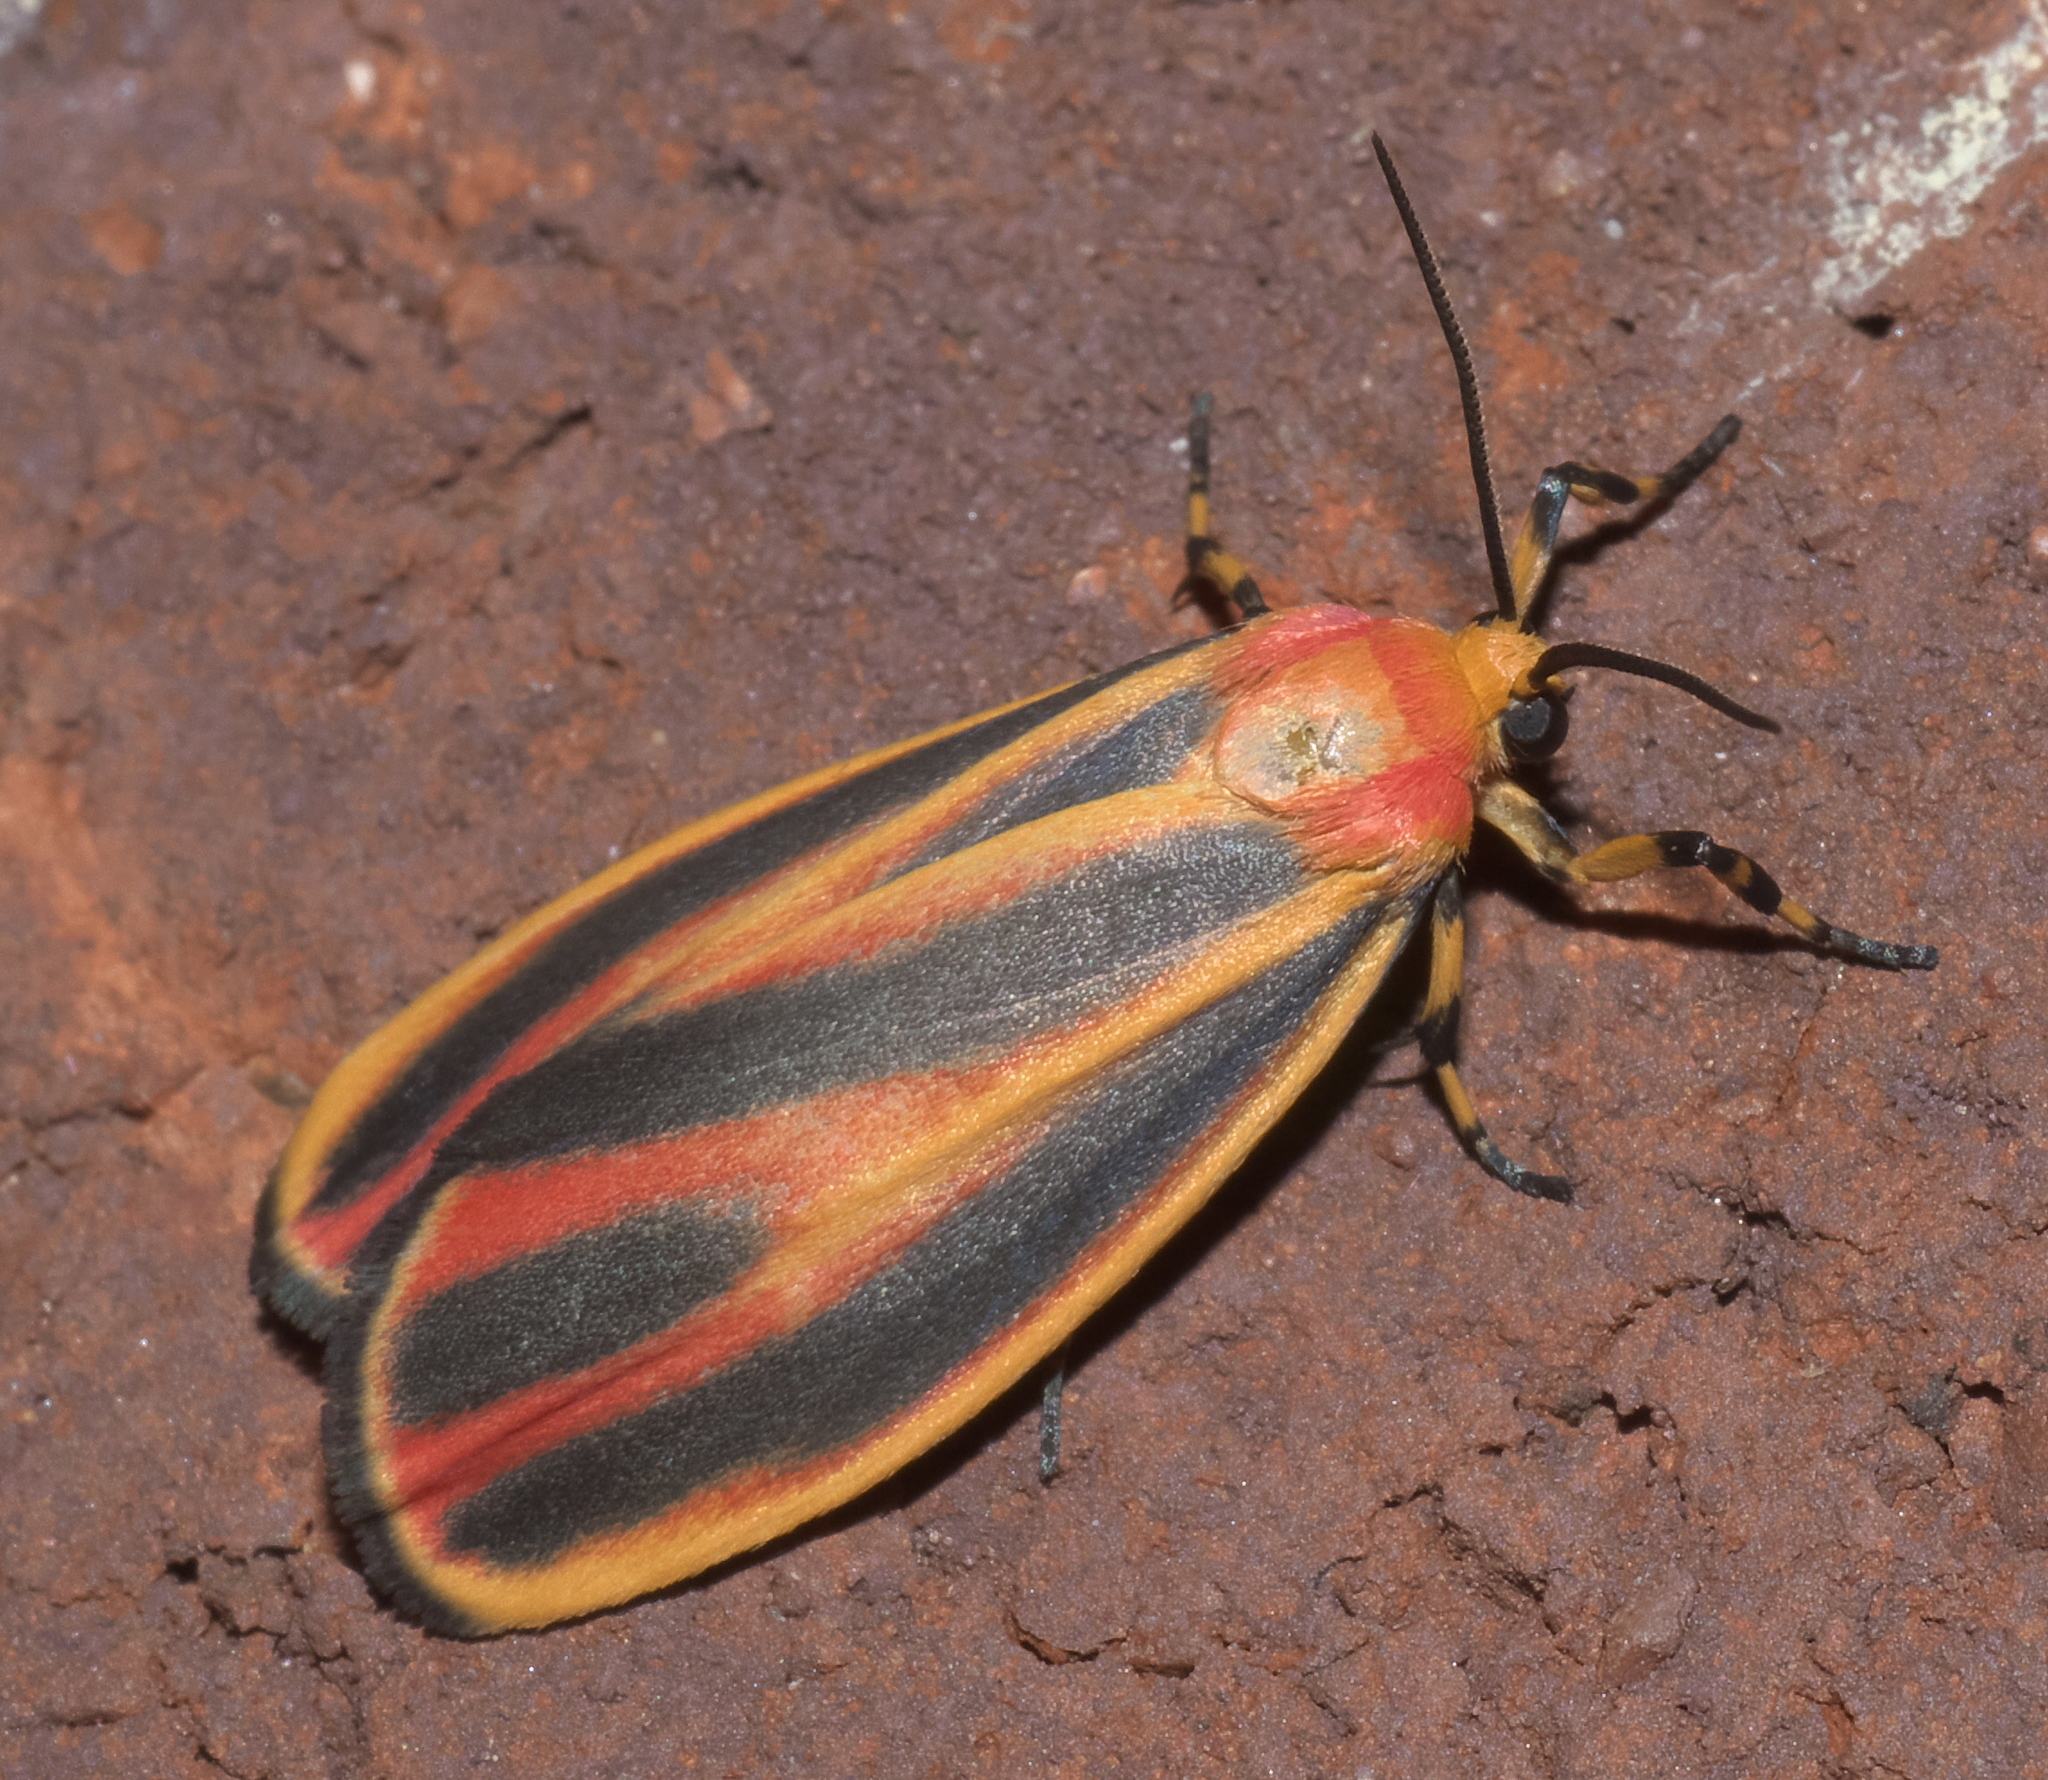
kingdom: Animalia
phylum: Arthropoda
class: Insecta
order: Lepidoptera
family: Erebidae
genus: Hypoprepia
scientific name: Hypoprepia fucosa
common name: Painted lichen moth
